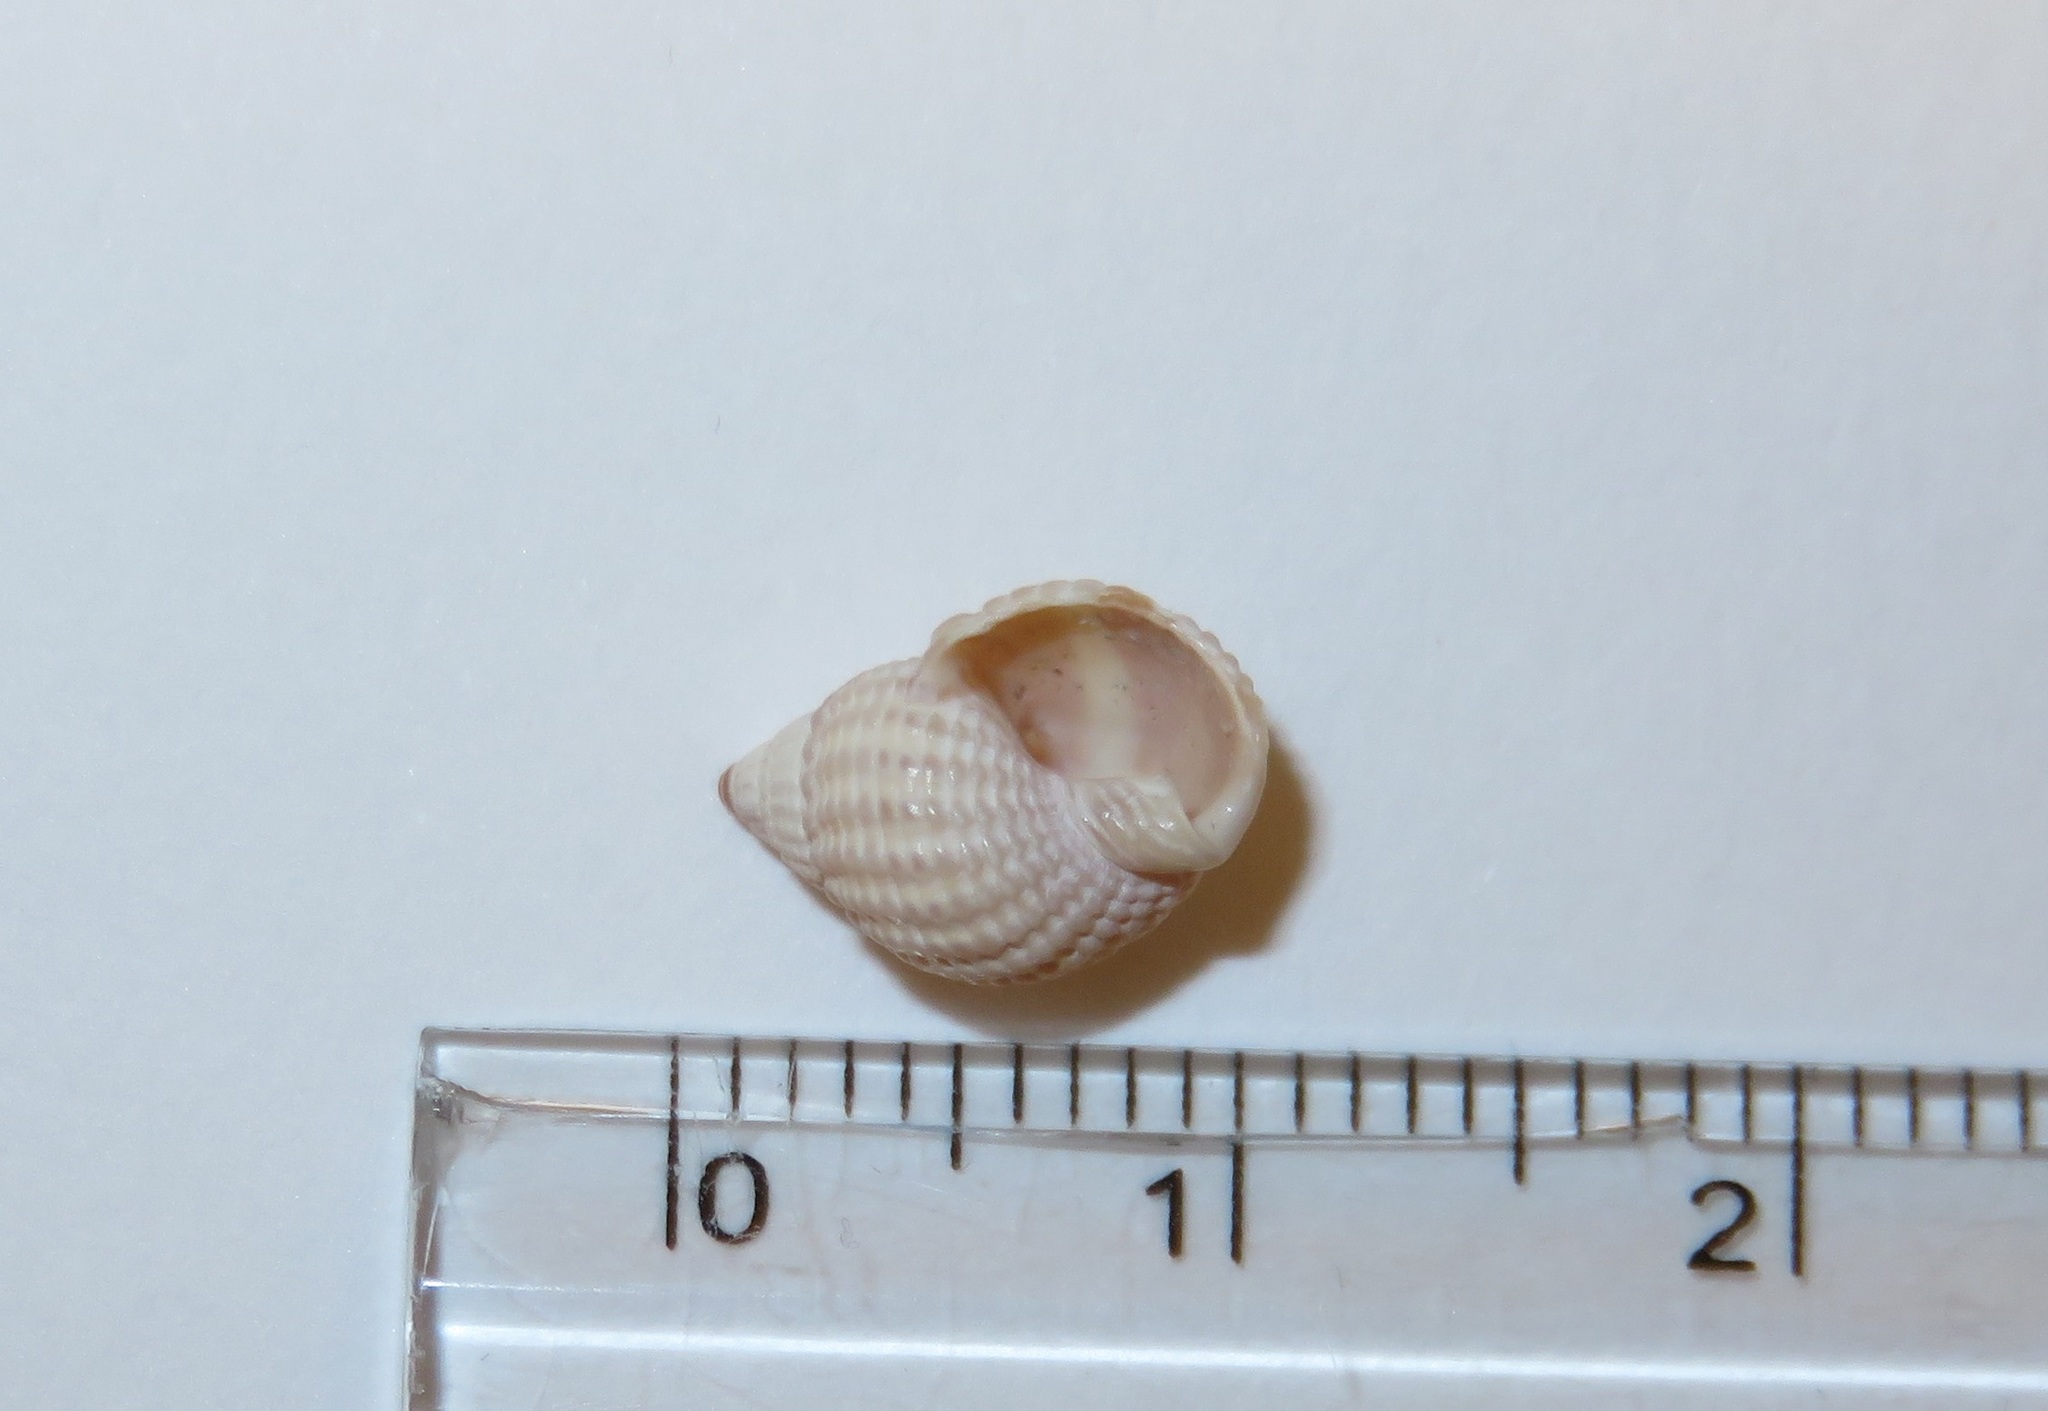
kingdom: Animalia
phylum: Mollusca
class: Gastropoda
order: Neogastropoda
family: Nassariidae
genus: Nassarius
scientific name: Nassarius conoidalis
